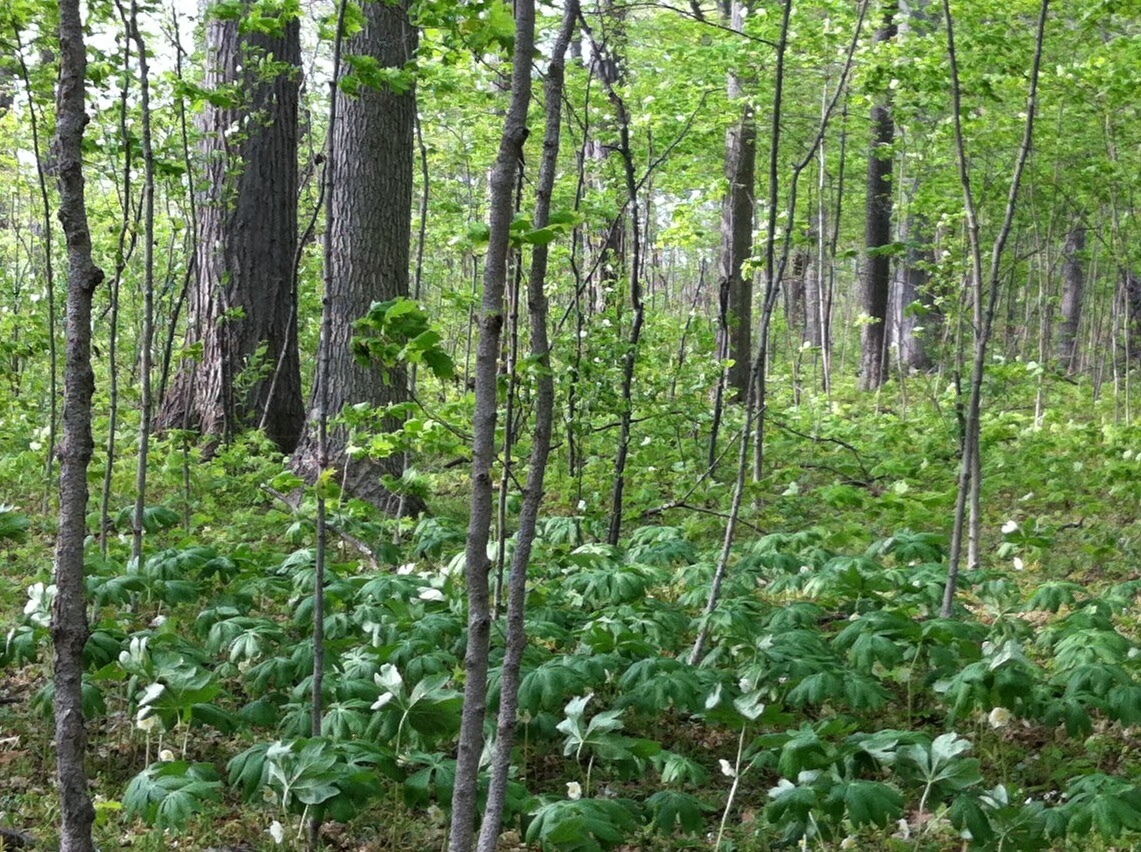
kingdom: Plantae
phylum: Tracheophyta
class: Magnoliopsida
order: Ranunculales
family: Berberidaceae
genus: Podophyllum
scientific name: Podophyllum peltatum
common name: Wild mandrake
